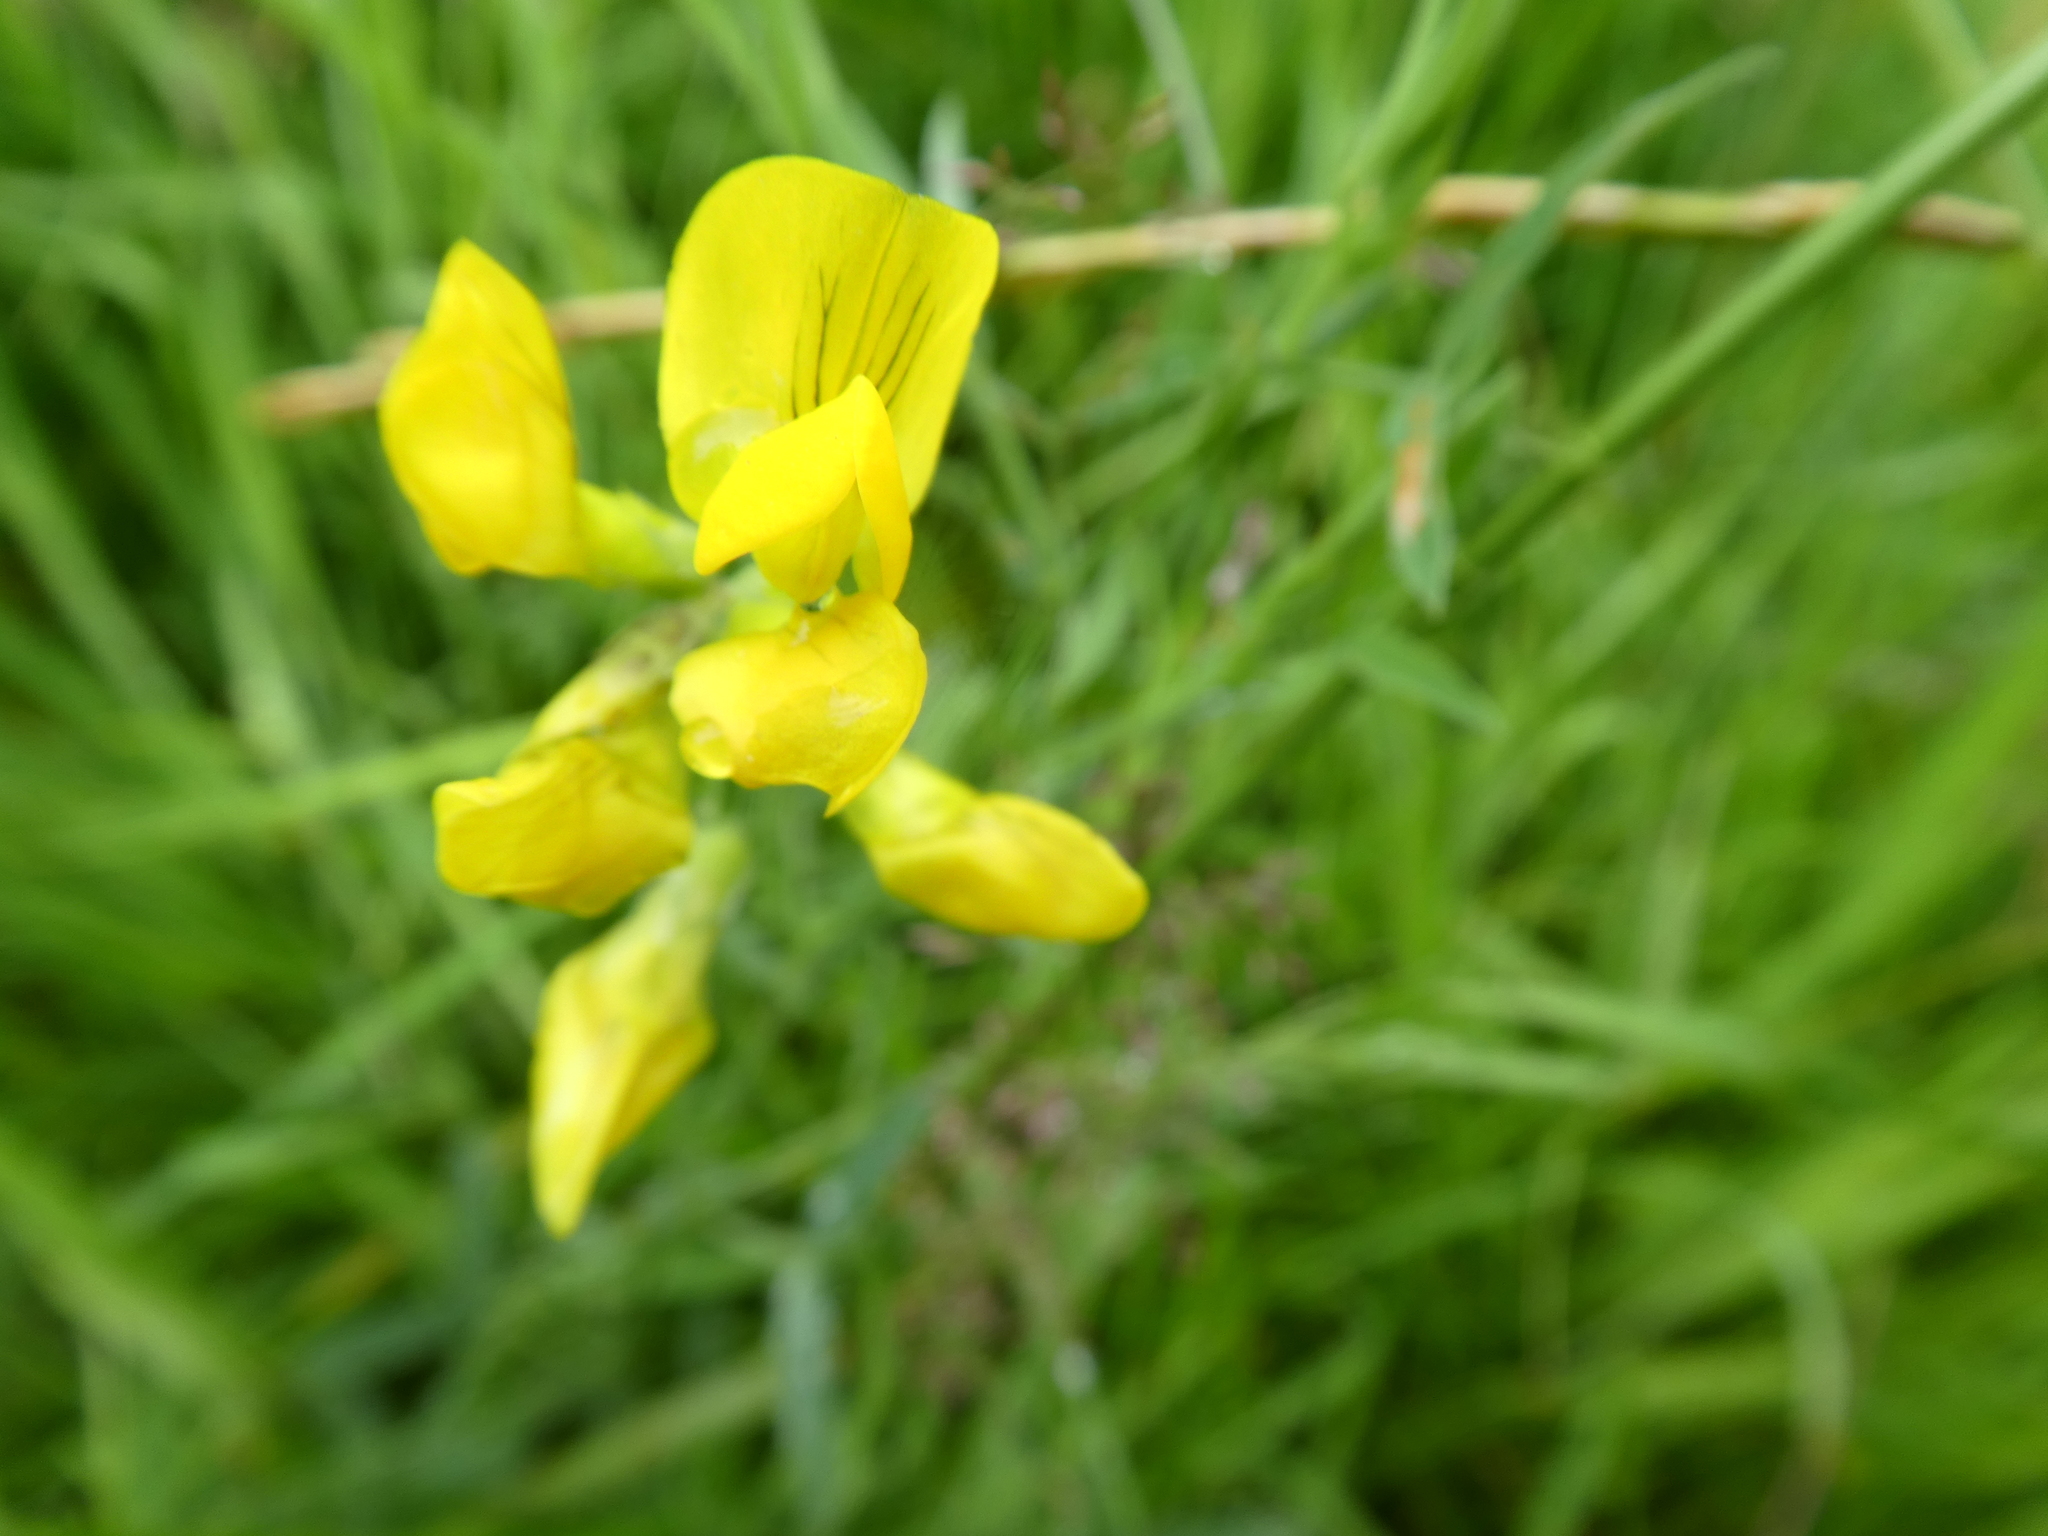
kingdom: Plantae
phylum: Tracheophyta
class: Magnoliopsida
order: Fabales
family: Fabaceae
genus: Lathyrus
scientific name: Lathyrus pratensis
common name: Meadow vetchling
